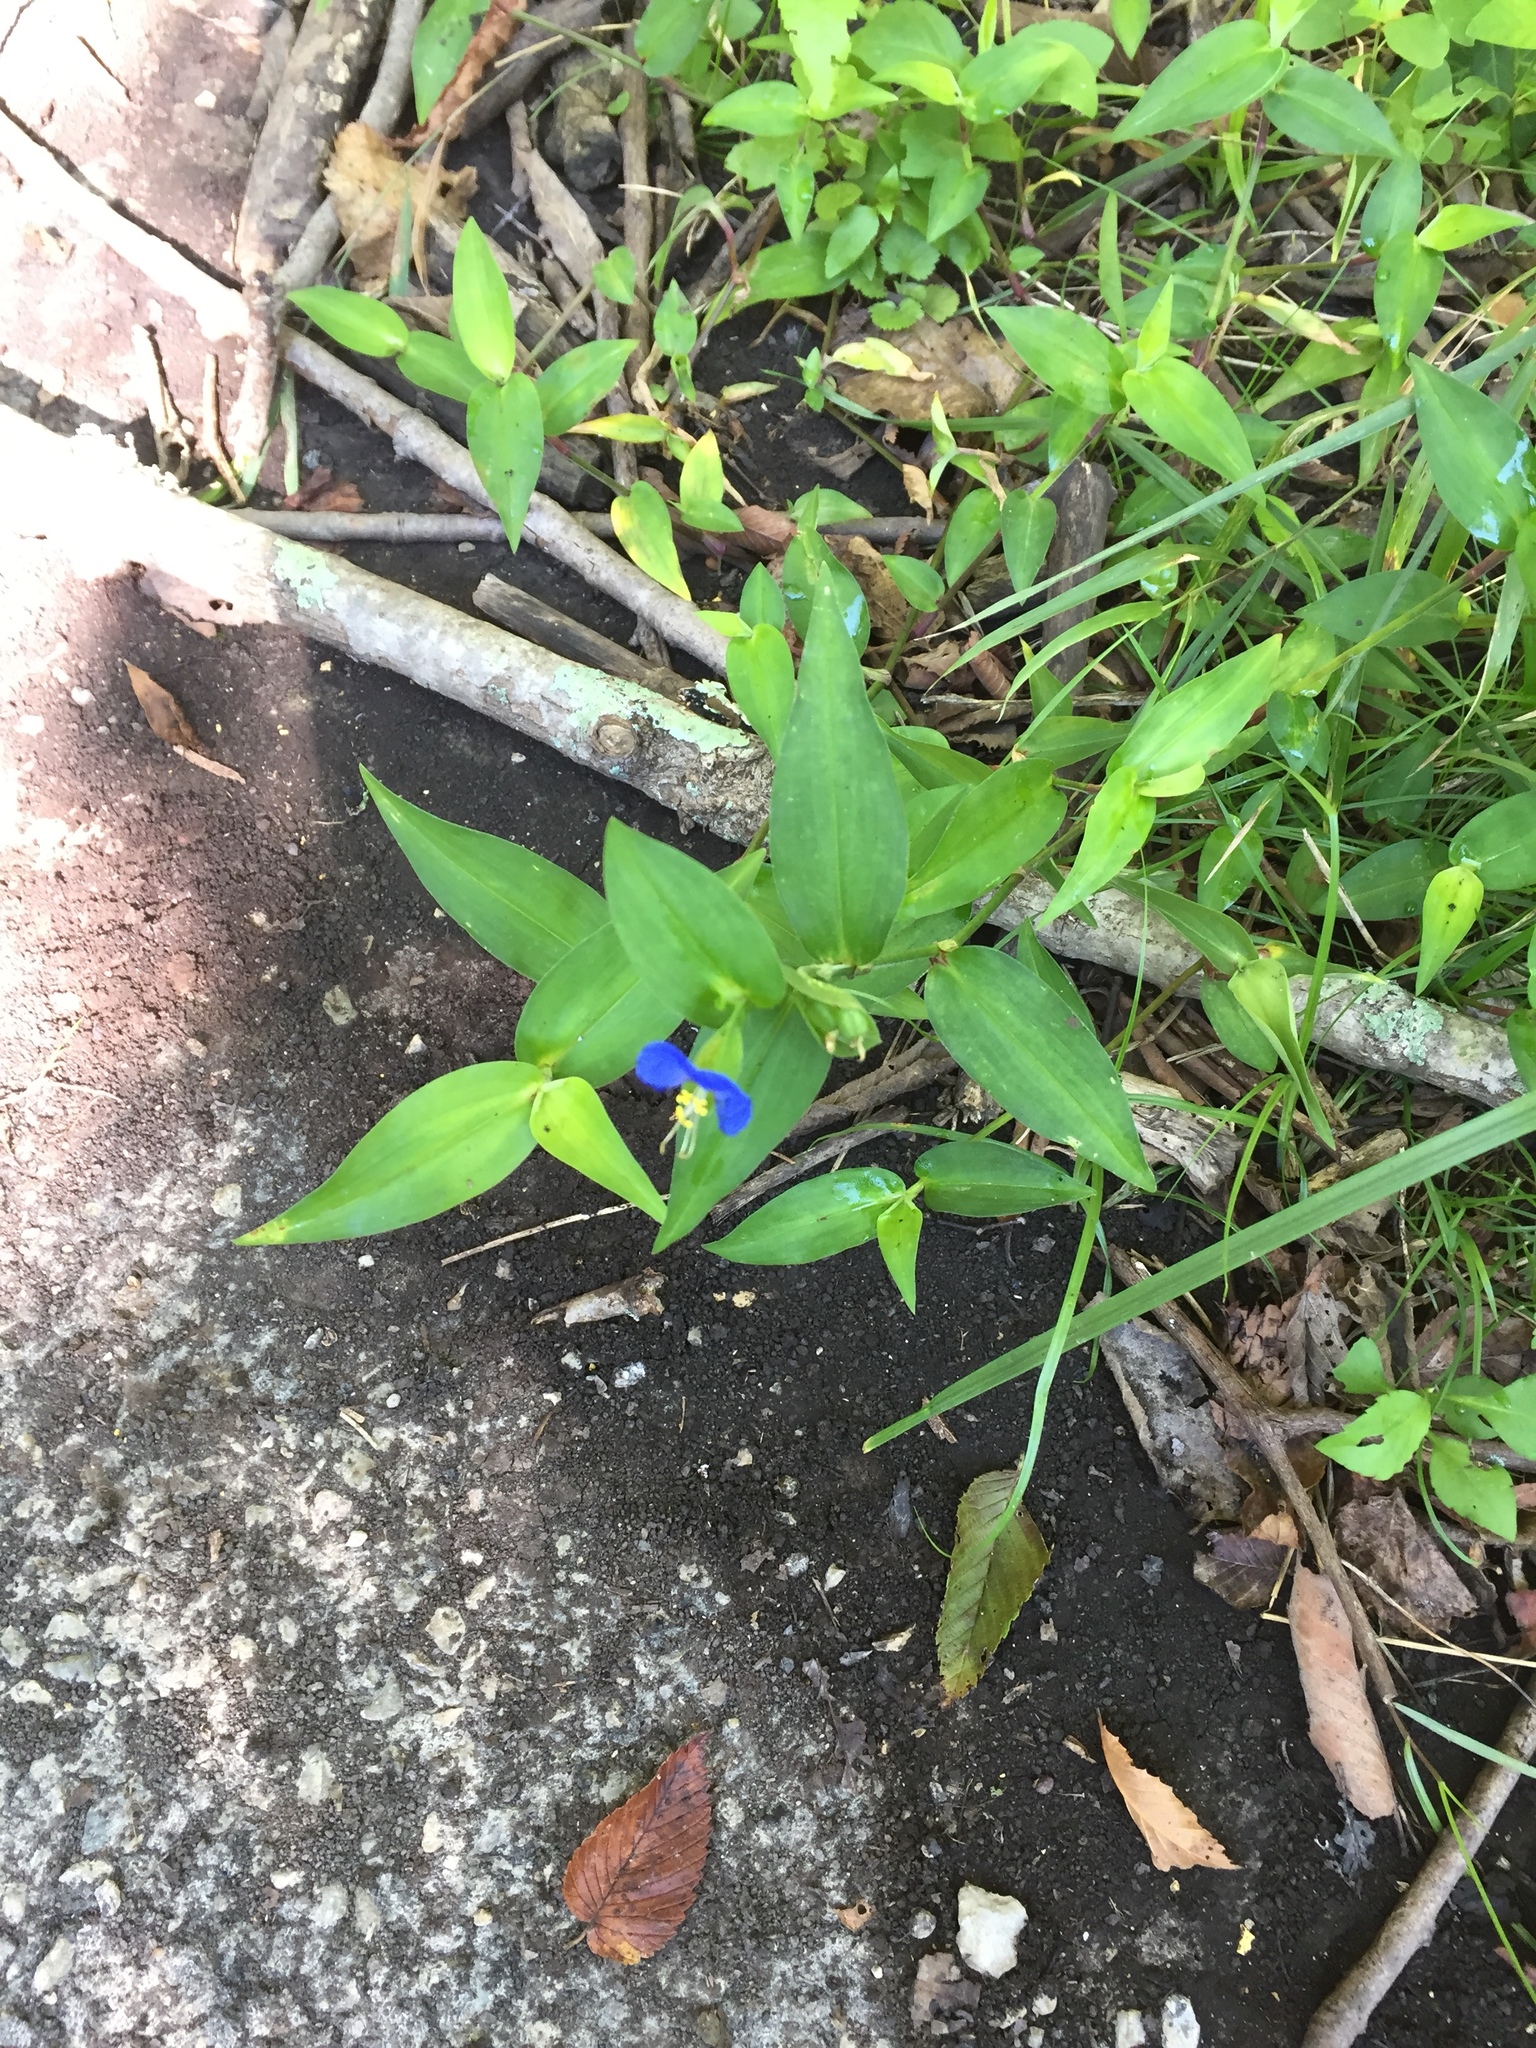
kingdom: Plantae
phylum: Tracheophyta
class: Liliopsida
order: Commelinales
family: Commelinaceae
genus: Commelina
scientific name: Commelina communis
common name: Asiatic dayflower
